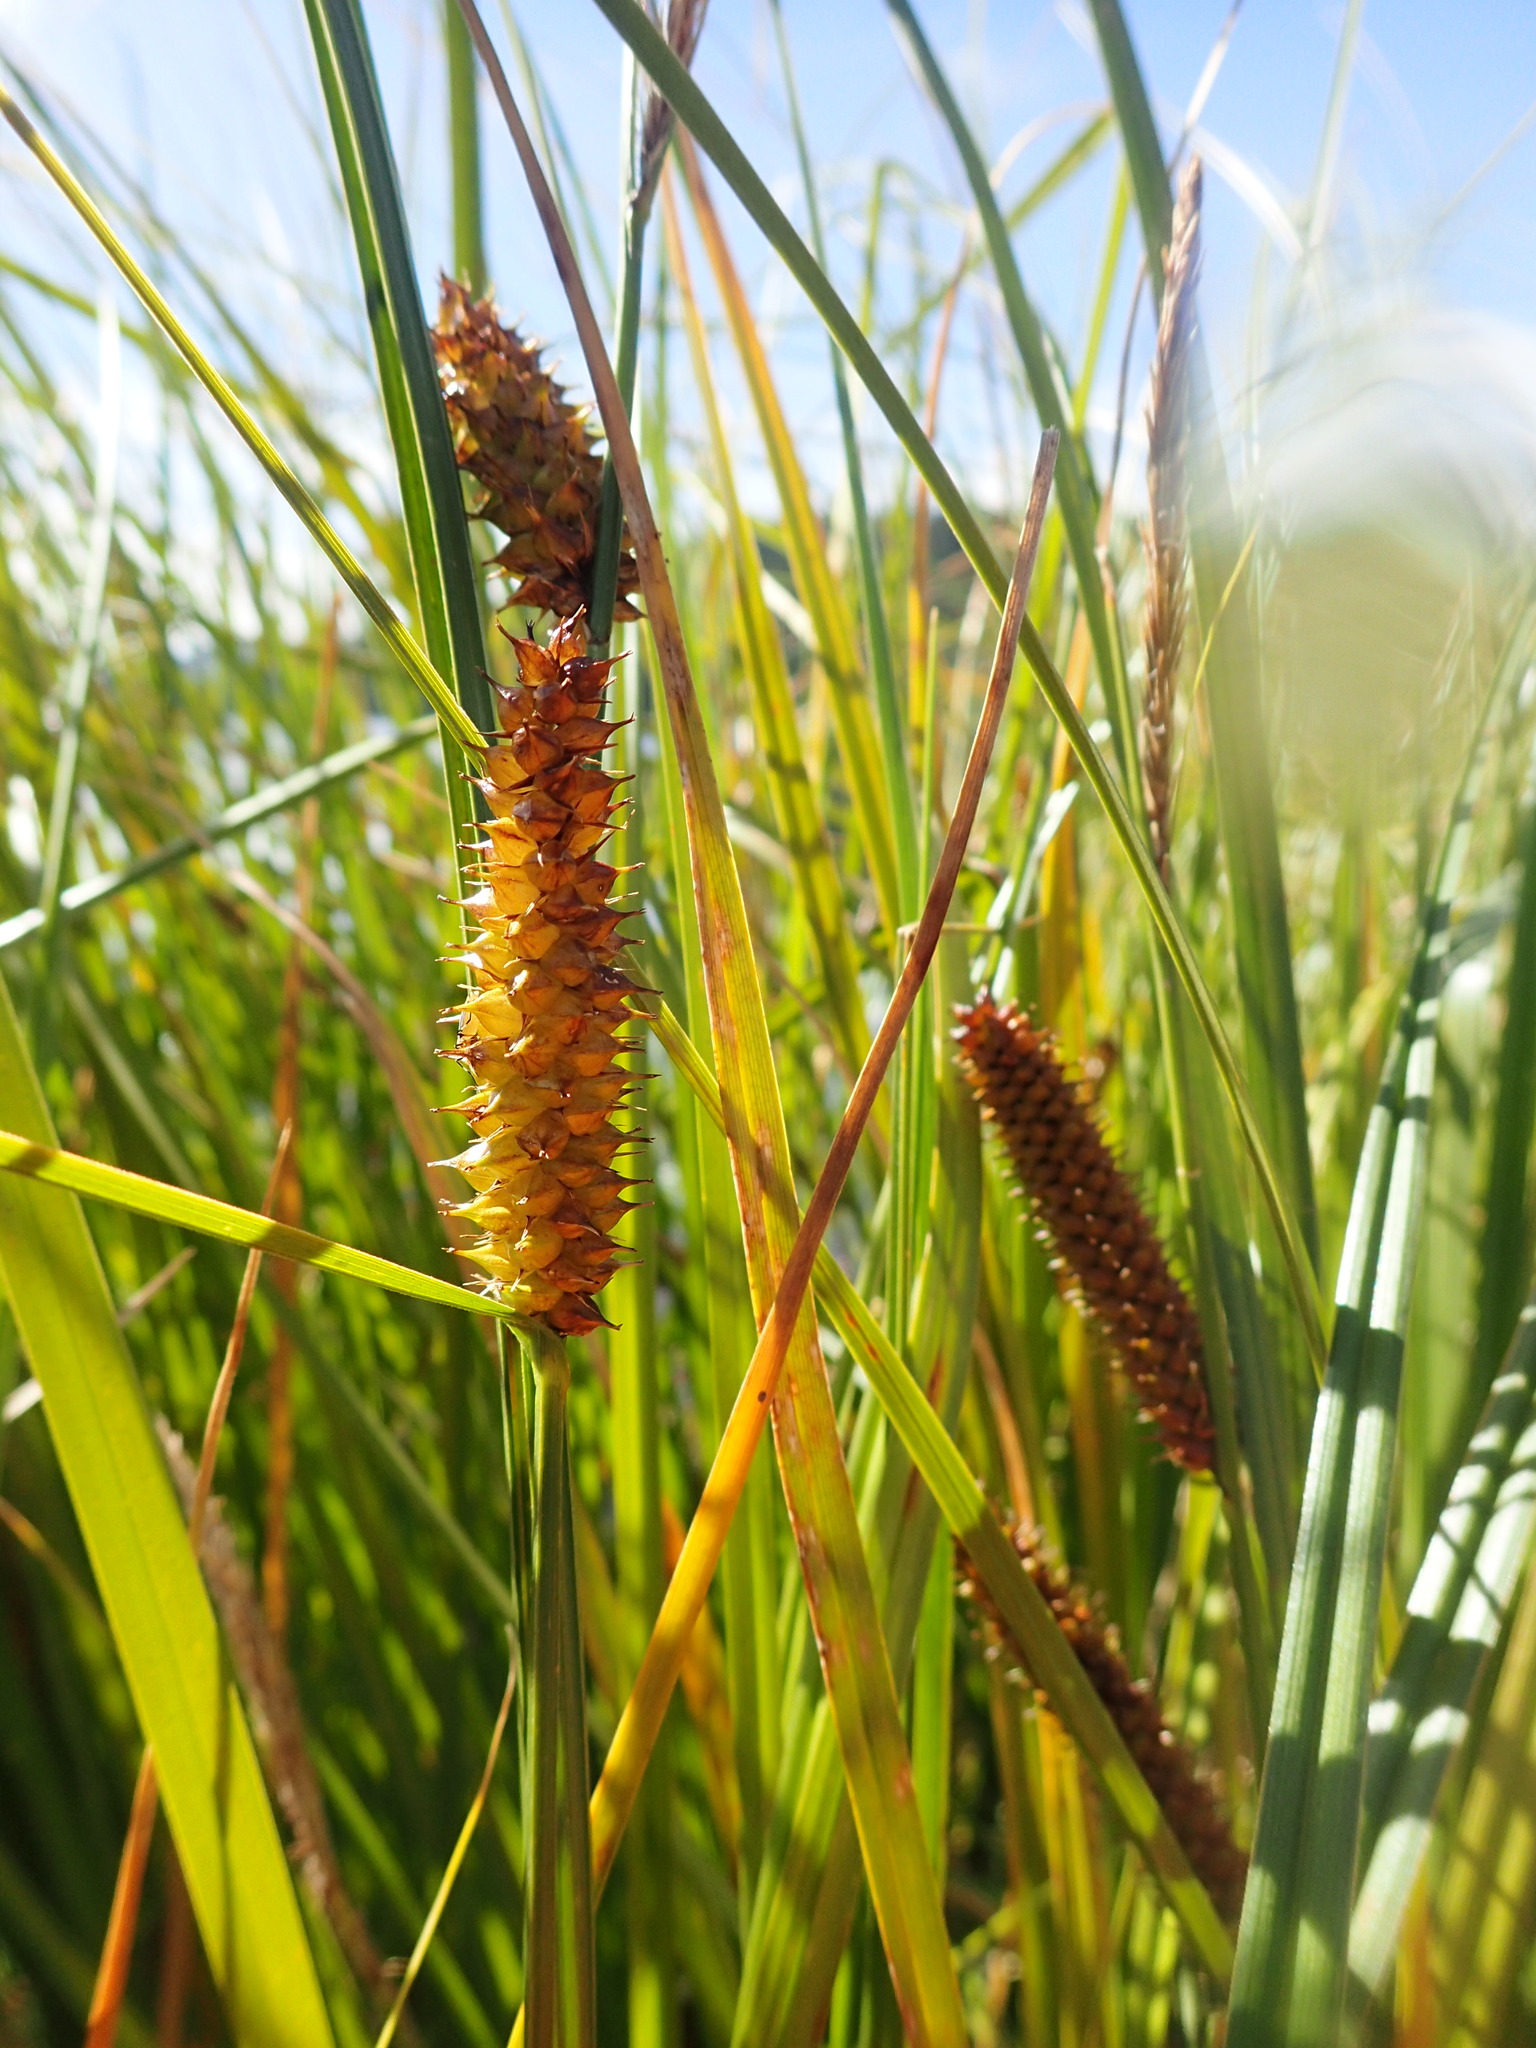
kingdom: Plantae
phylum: Tracheophyta
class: Liliopsida
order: Poales
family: Cyperaceae
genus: Carex
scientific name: Carex utriculata
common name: Beaked sedge
